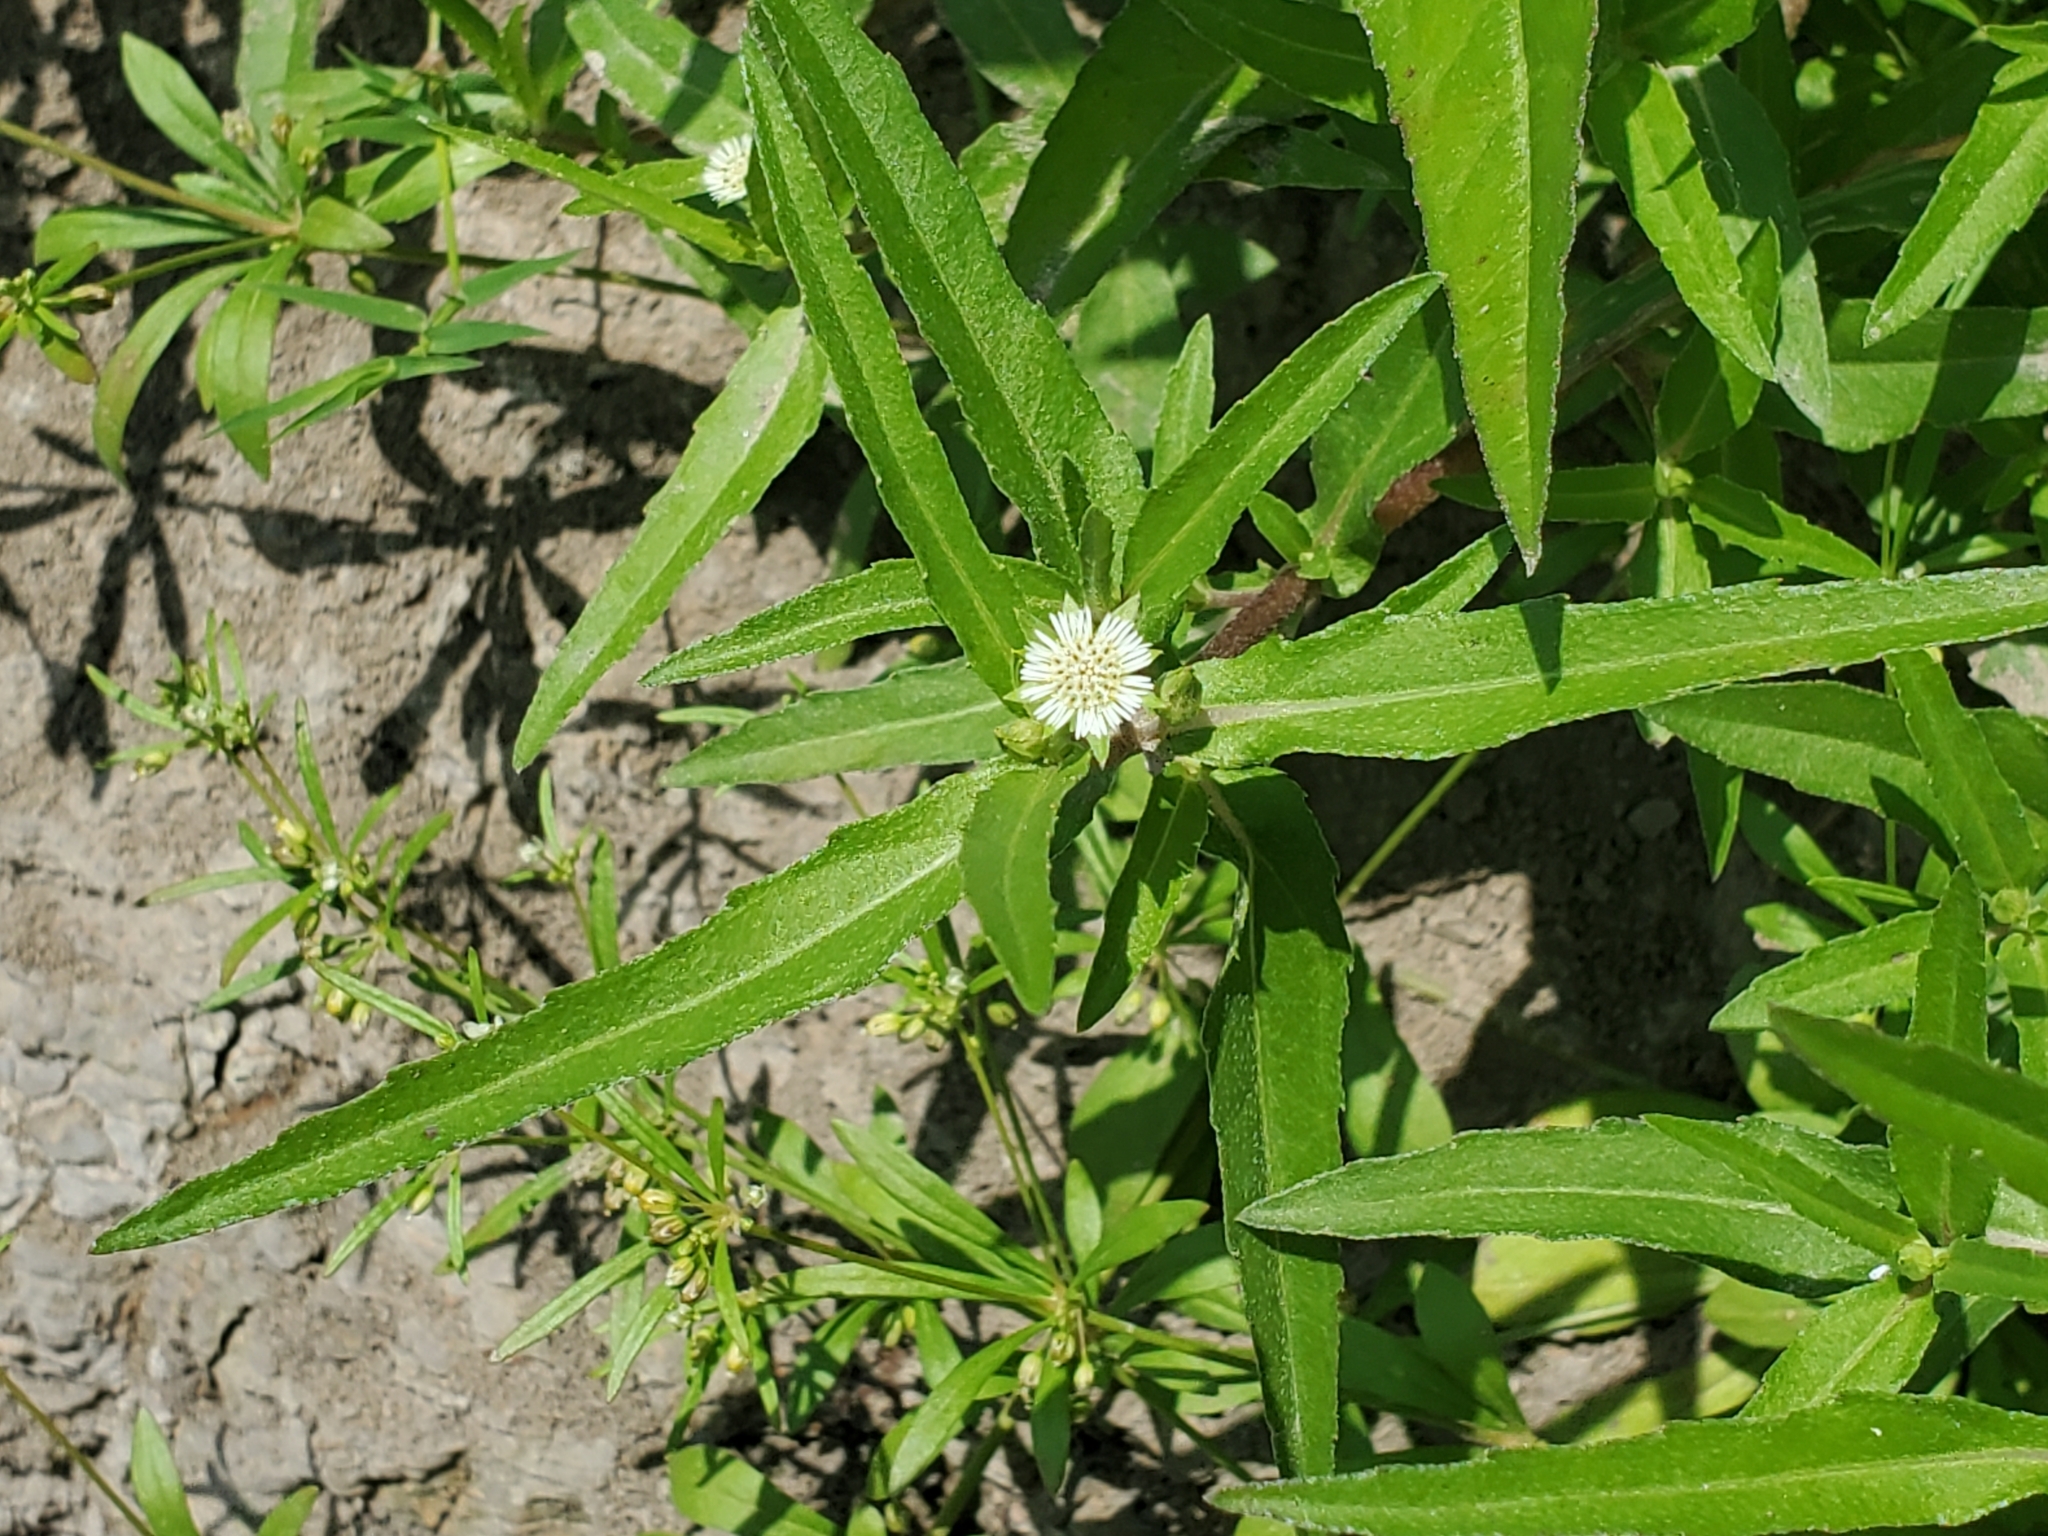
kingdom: Plantae
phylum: Tracheophyta
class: Magnoliopsida
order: Asterales
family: Asteraceae
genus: Eclipta
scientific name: Eclipta prostrata
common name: False daisy
